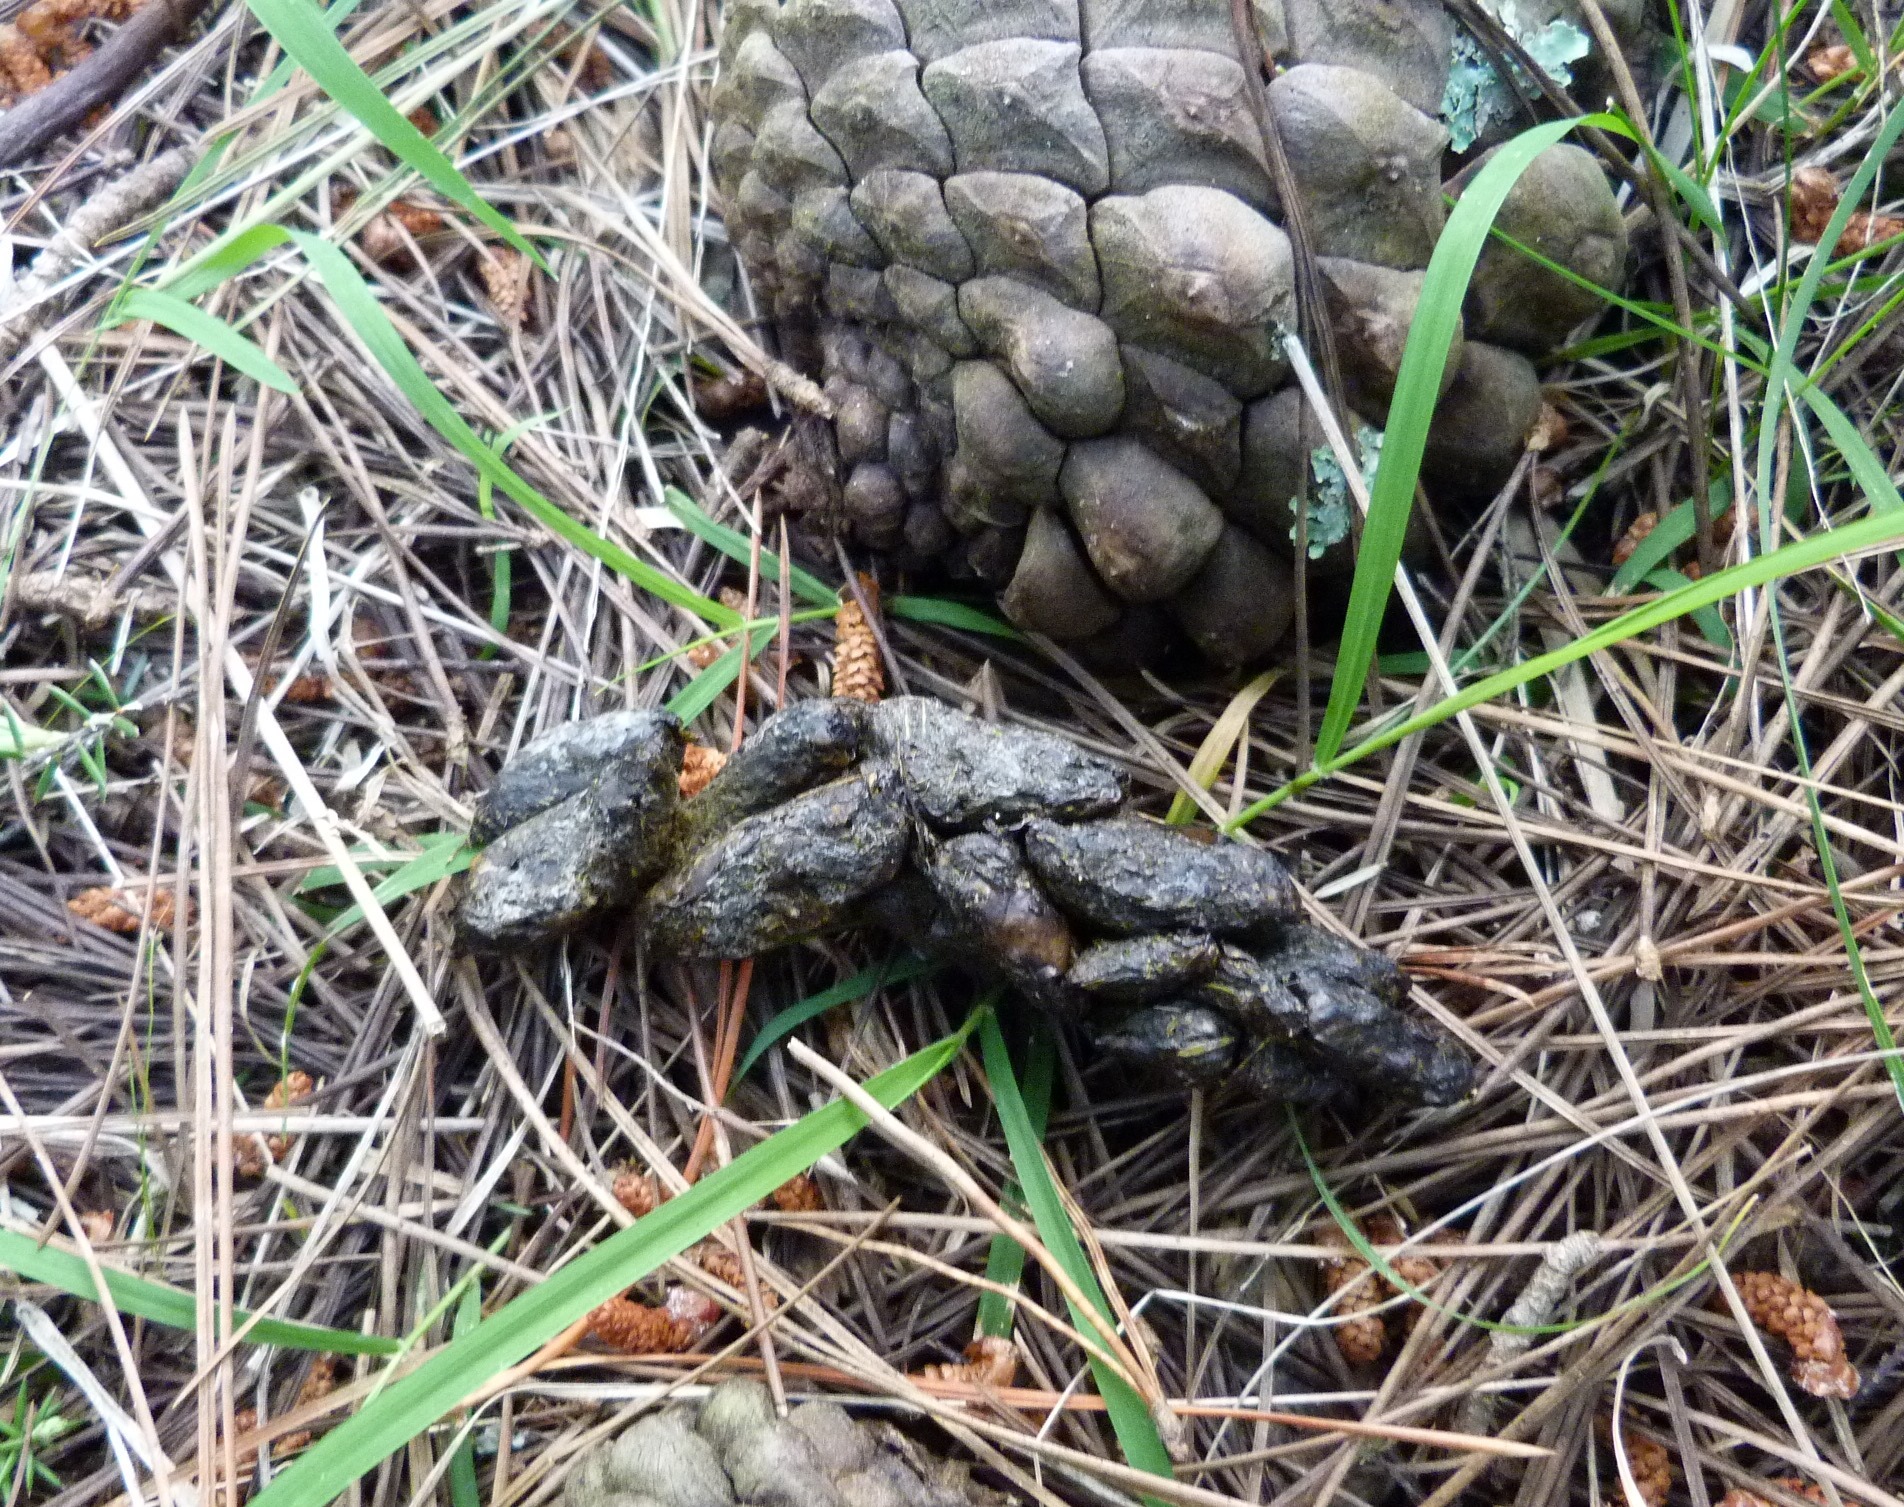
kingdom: Animalia
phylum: Chordata
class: Mammalia
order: Diprotodontia
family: Phalangeridae
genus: Trichosurus
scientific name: Trichosurus vulpecula
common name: Common brushtail
